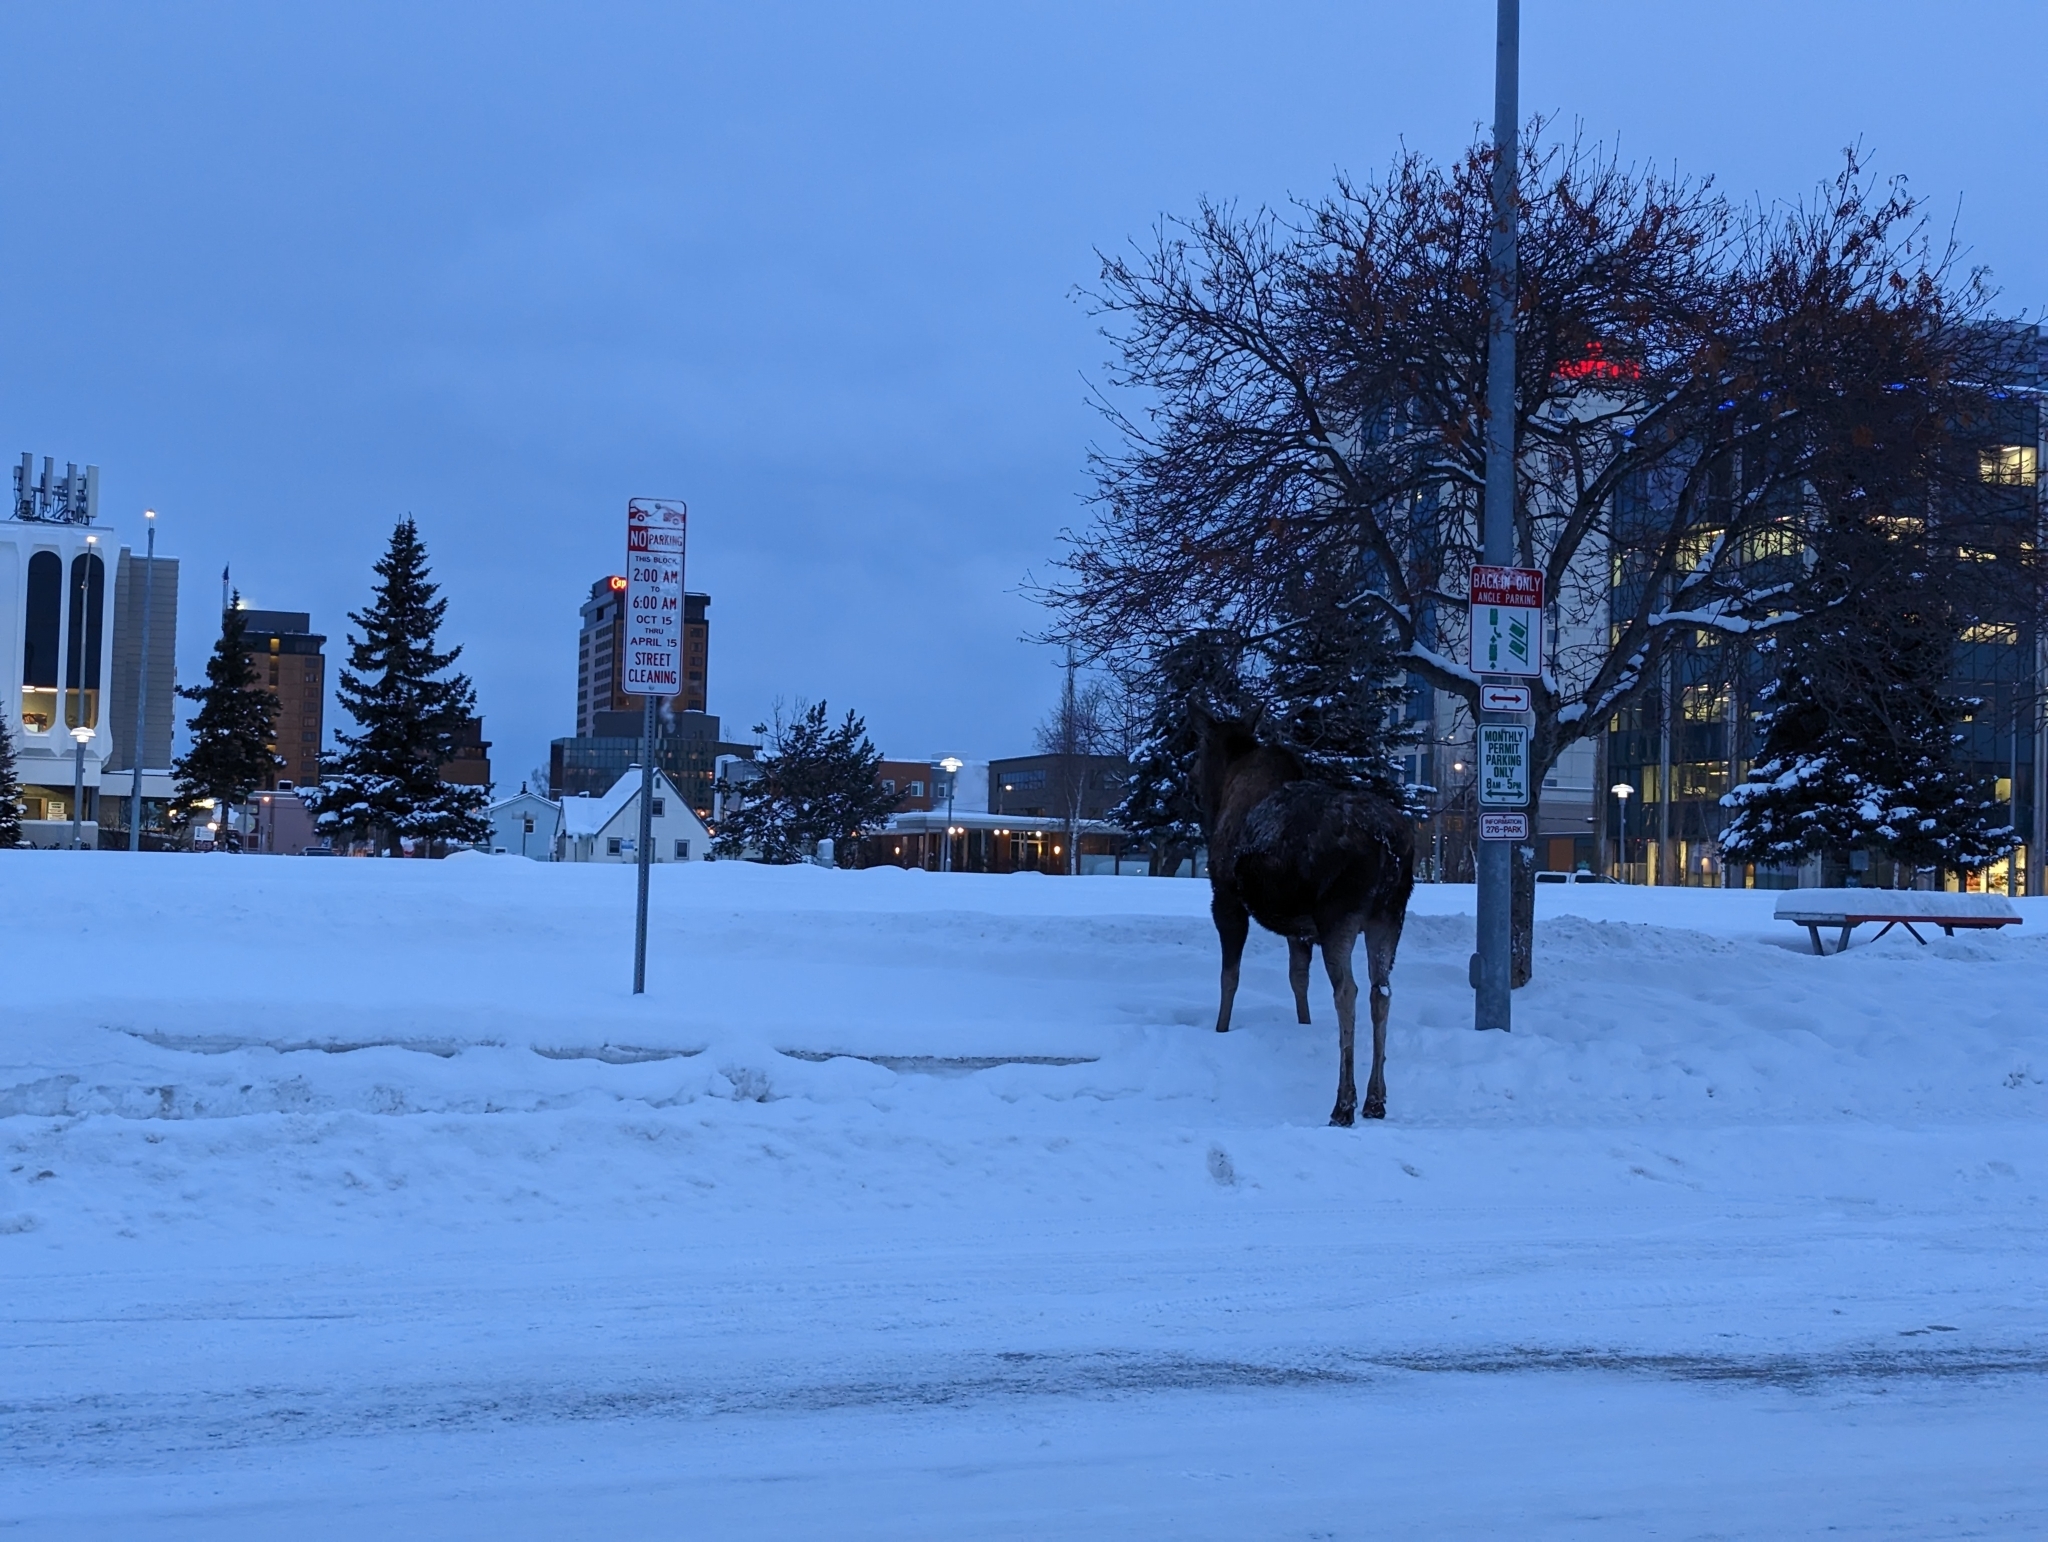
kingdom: Animalia
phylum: Chordata
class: Mammalia
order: Artiodactyla
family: Cervidae
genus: Alces
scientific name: Alces alces
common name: Moose
